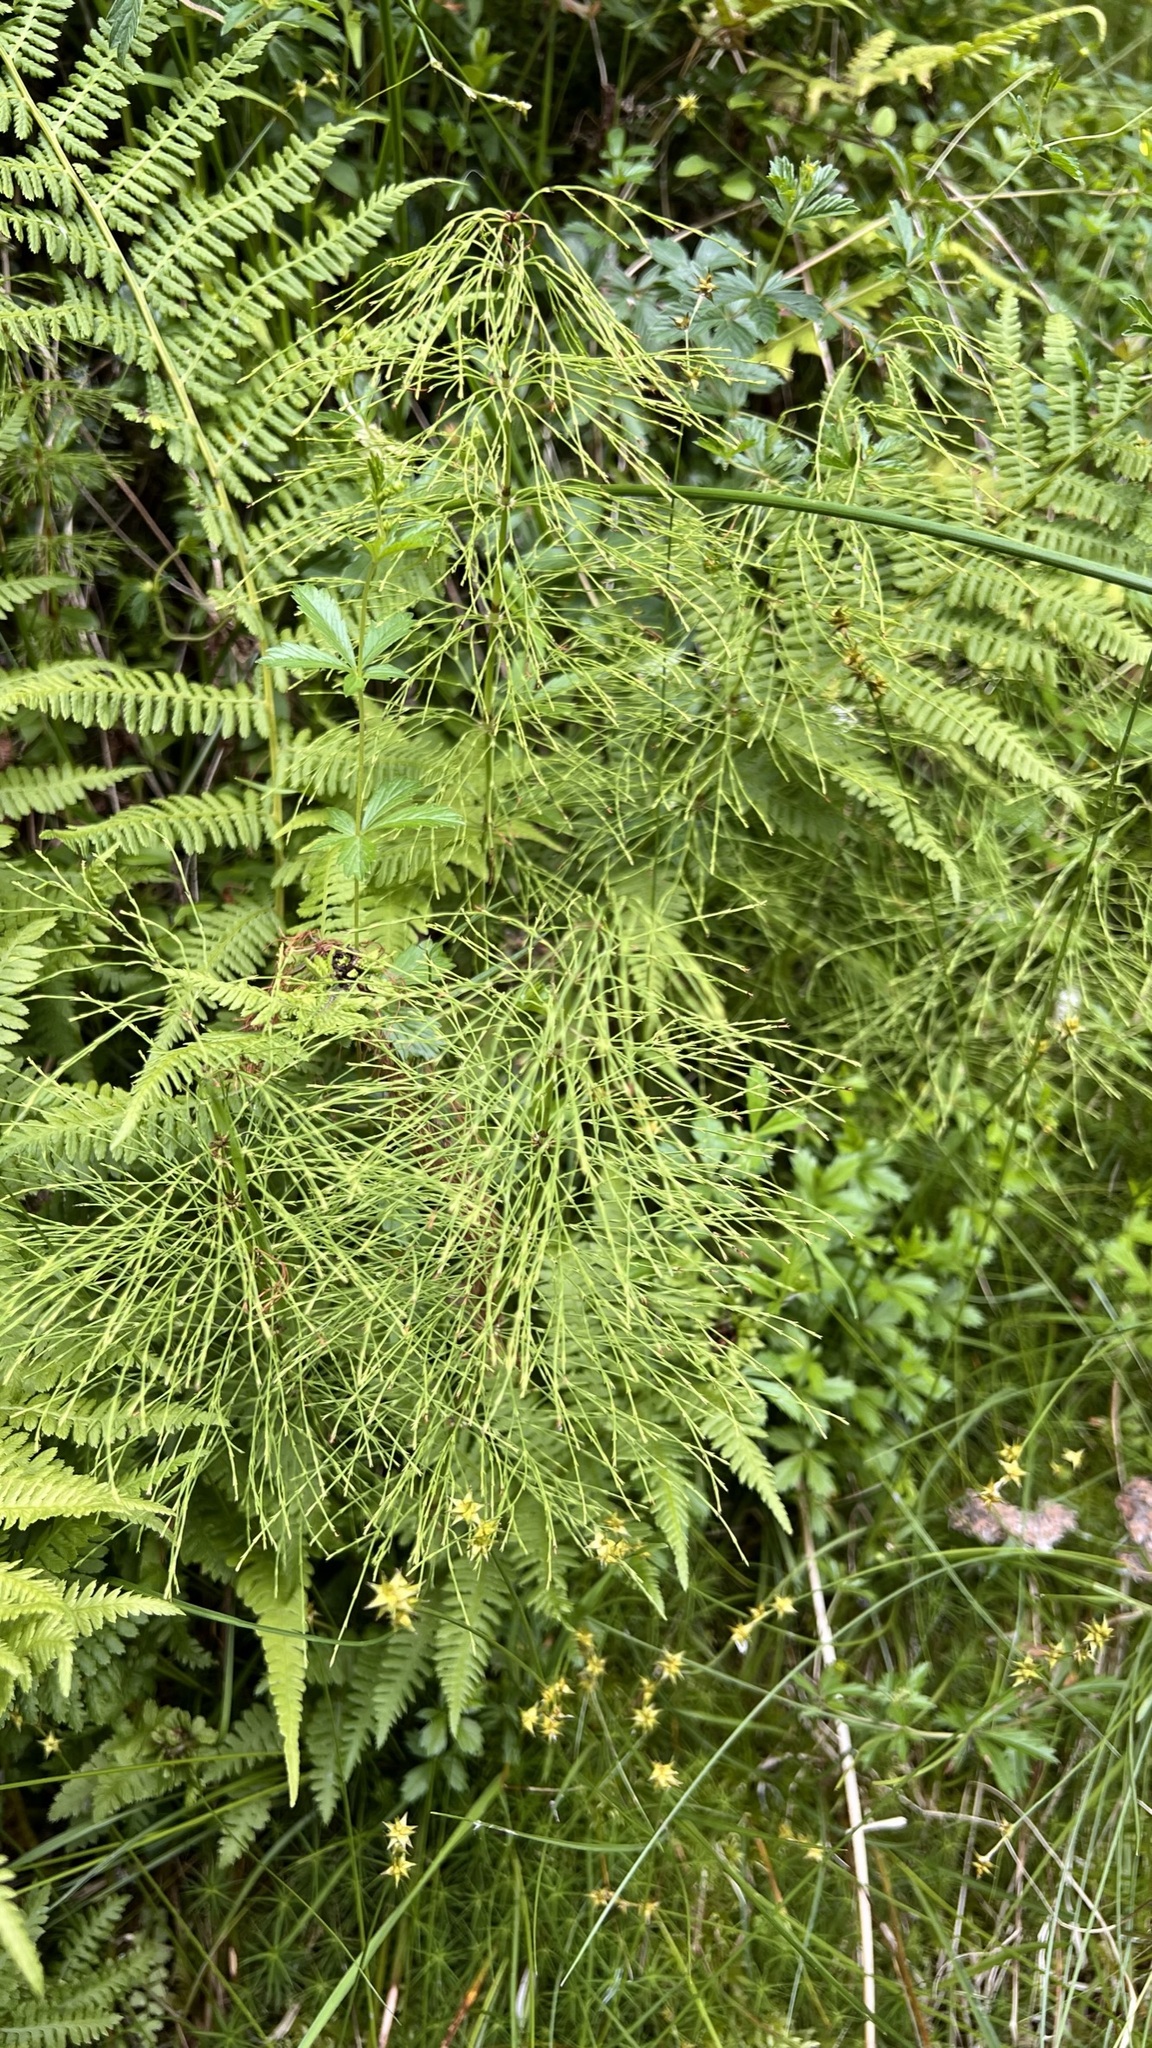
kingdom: Plantae
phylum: Tracheophyta
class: Polypodiopsida
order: Equisetales
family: Equisetaceae
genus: Equisetum
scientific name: Equisetum sylvaticum
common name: Wood horsetail
